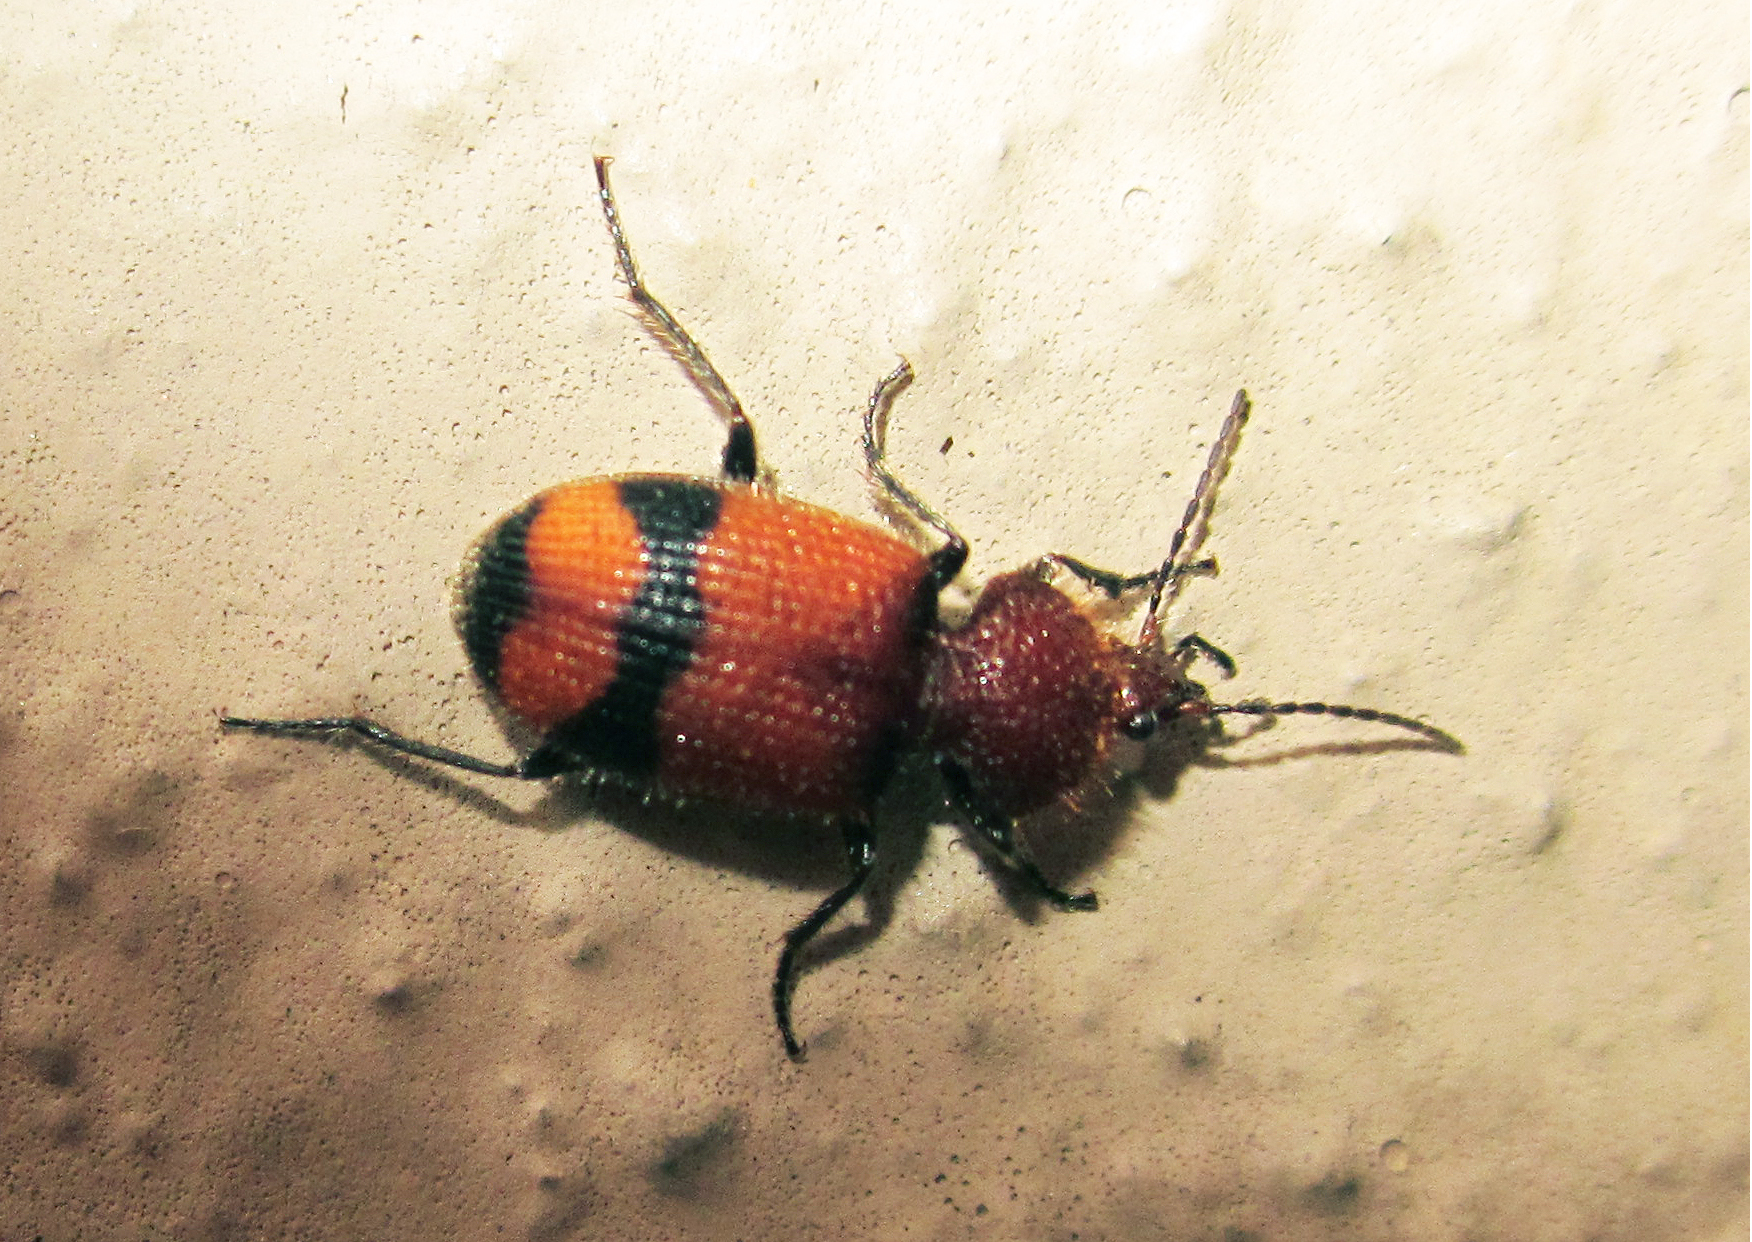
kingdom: Animalia
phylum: Arthropoda
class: Insecta
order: Coleoptera
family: Carabidae
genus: Panagaeus
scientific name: Panagaeus fasciatus
